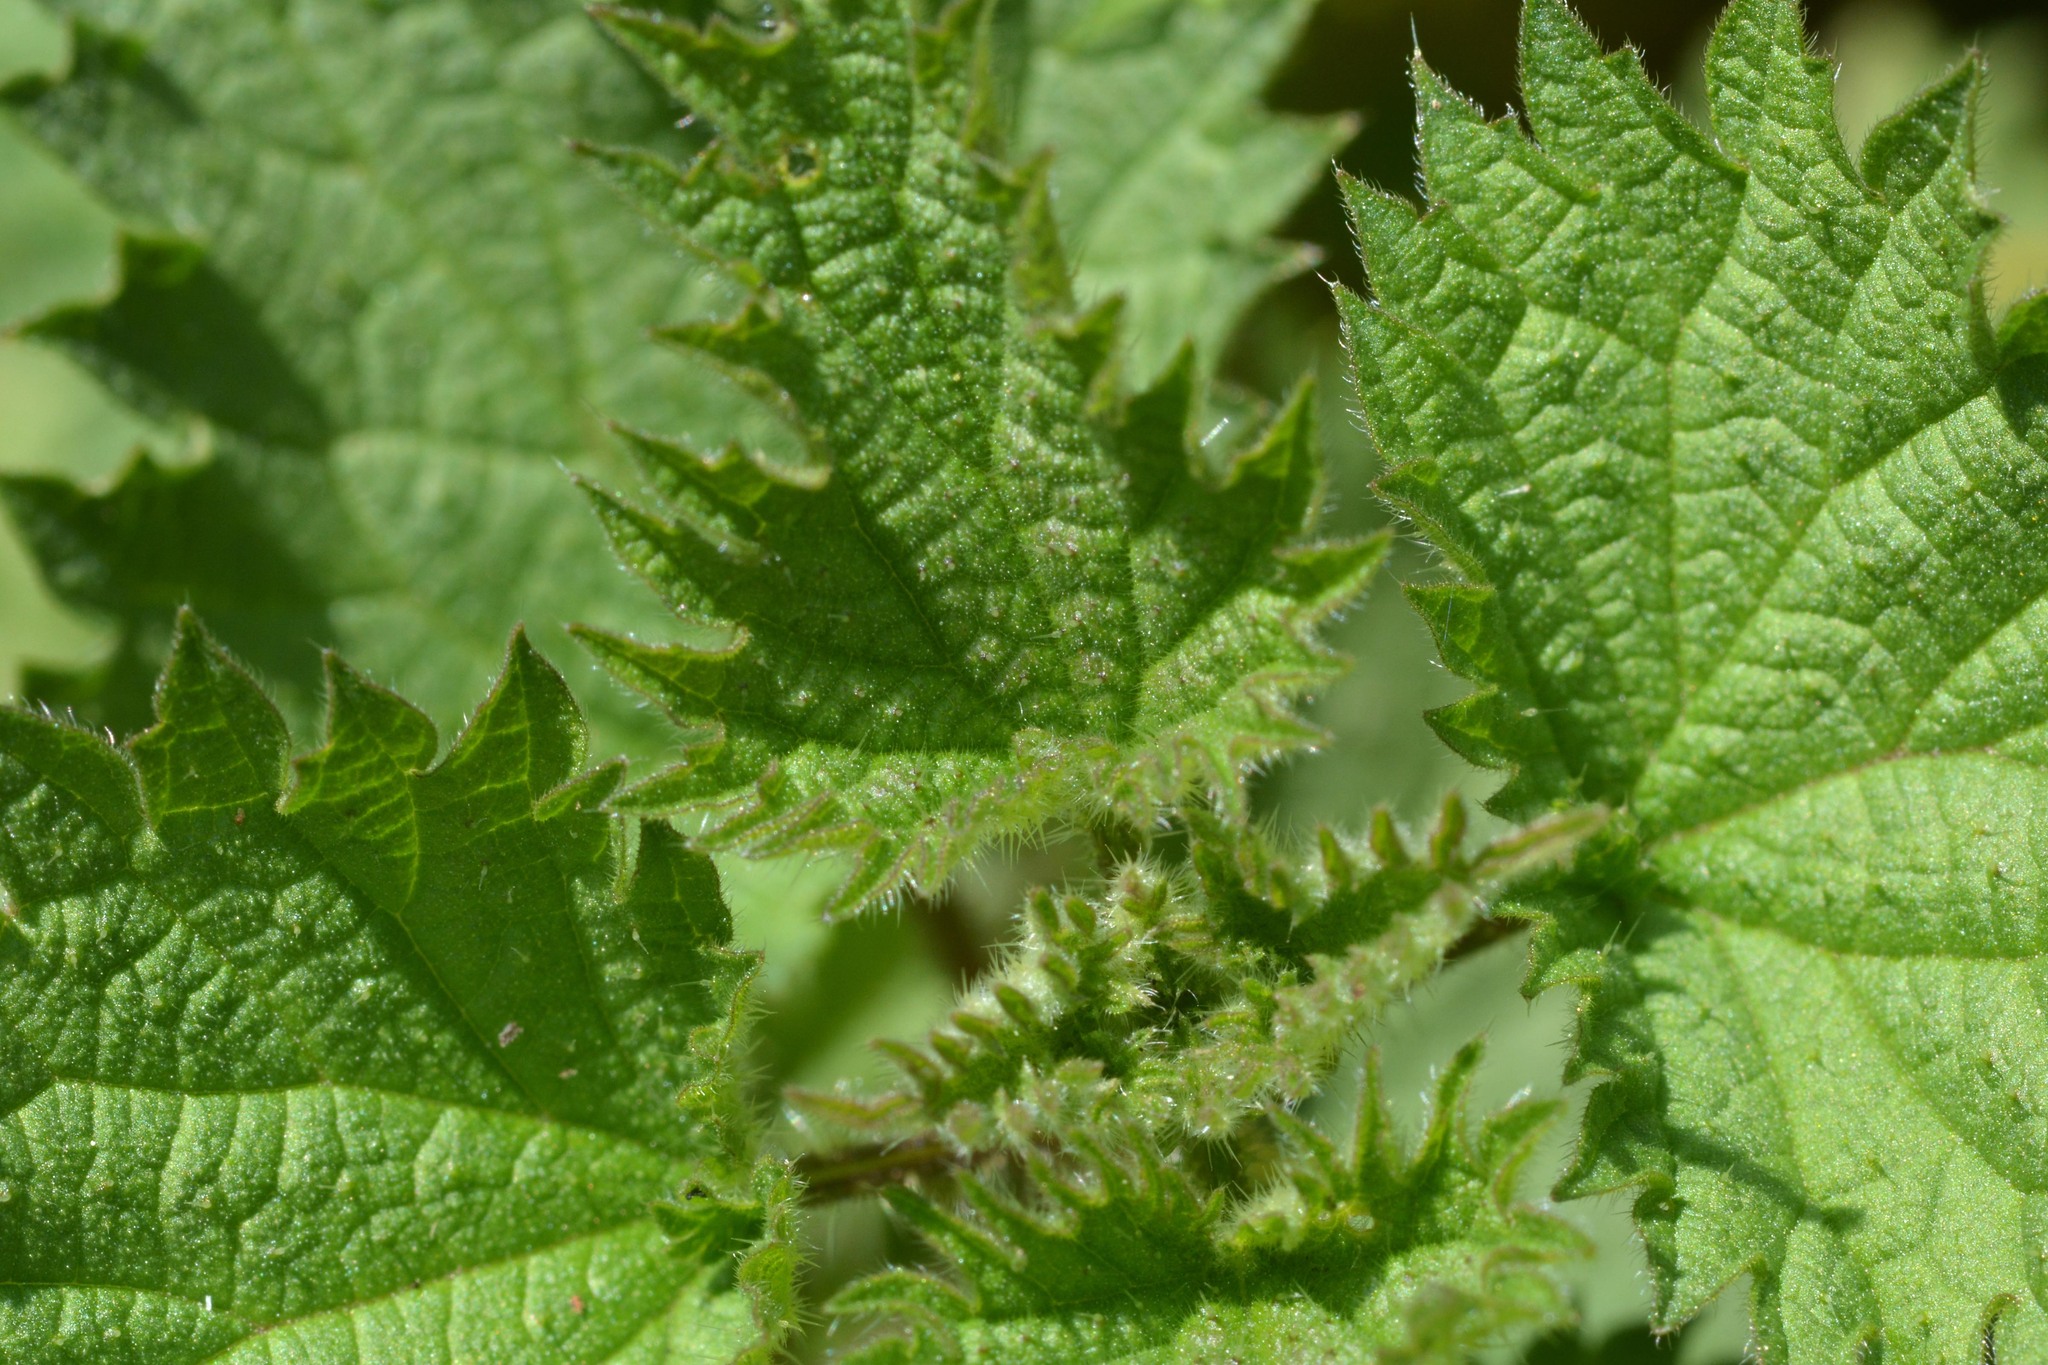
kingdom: Plantae
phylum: Tracheophyta
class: Magnoliopsida
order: Rosales
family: Urticaceae
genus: Urtica
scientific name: Urtica dioica
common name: Common nettle
